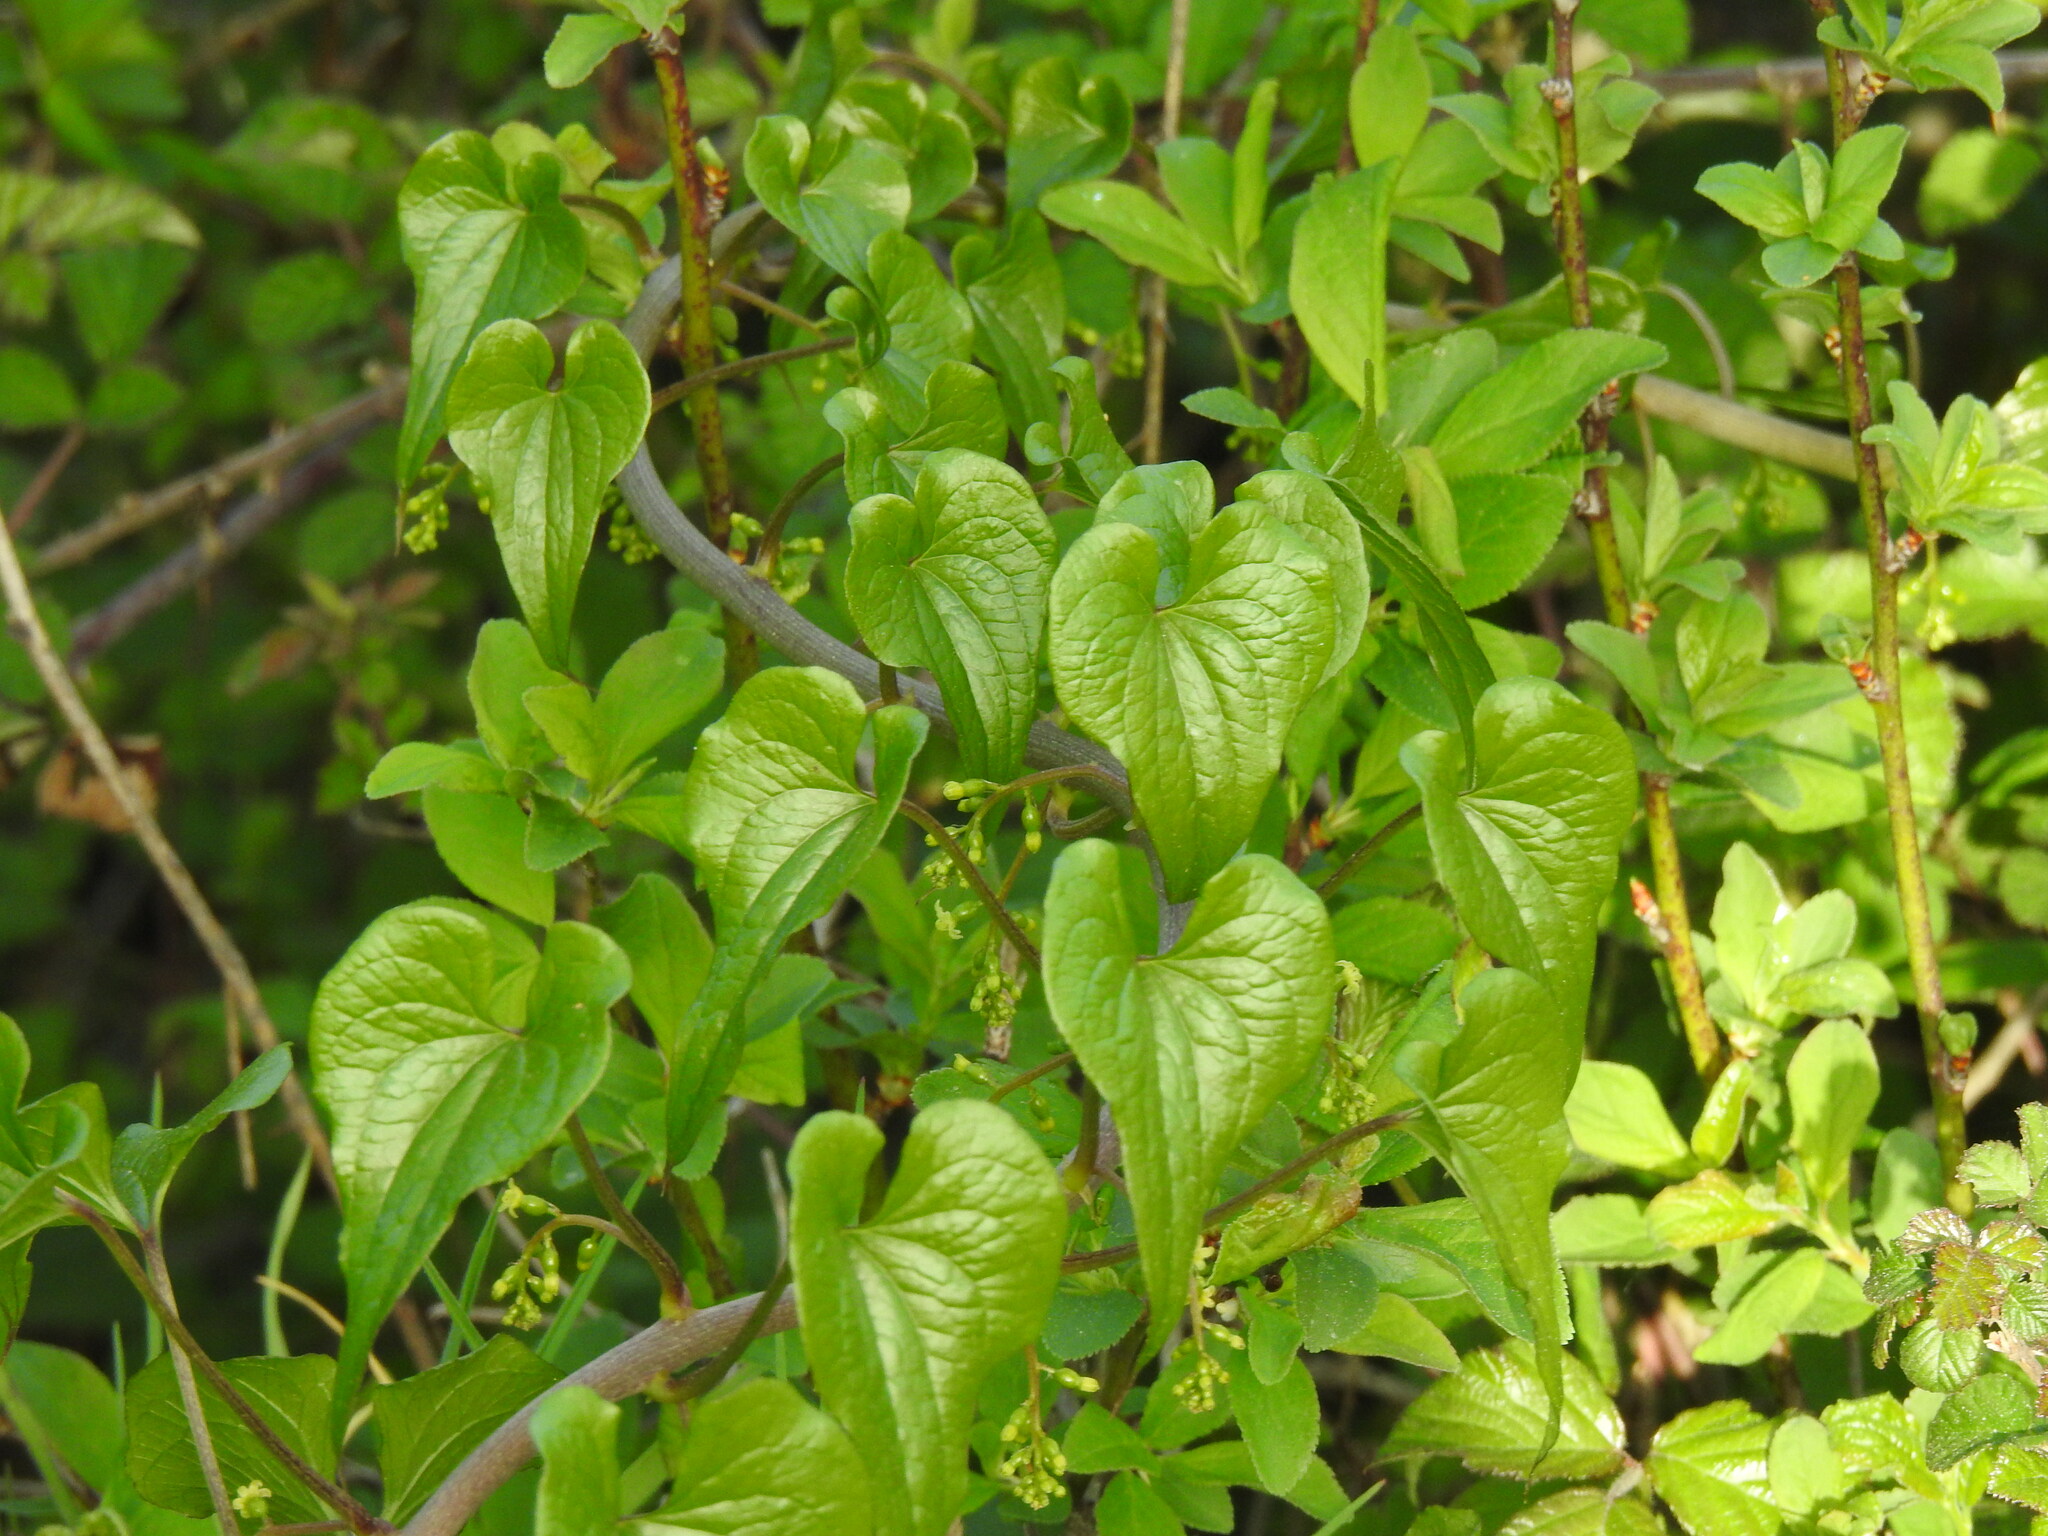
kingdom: Plantae
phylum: Tracheophyta
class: Liliopsida
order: Dioscoreales
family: Dioscoreaceae
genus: Dioscorea
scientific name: Dioscorea communis
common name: Black-bindweed
